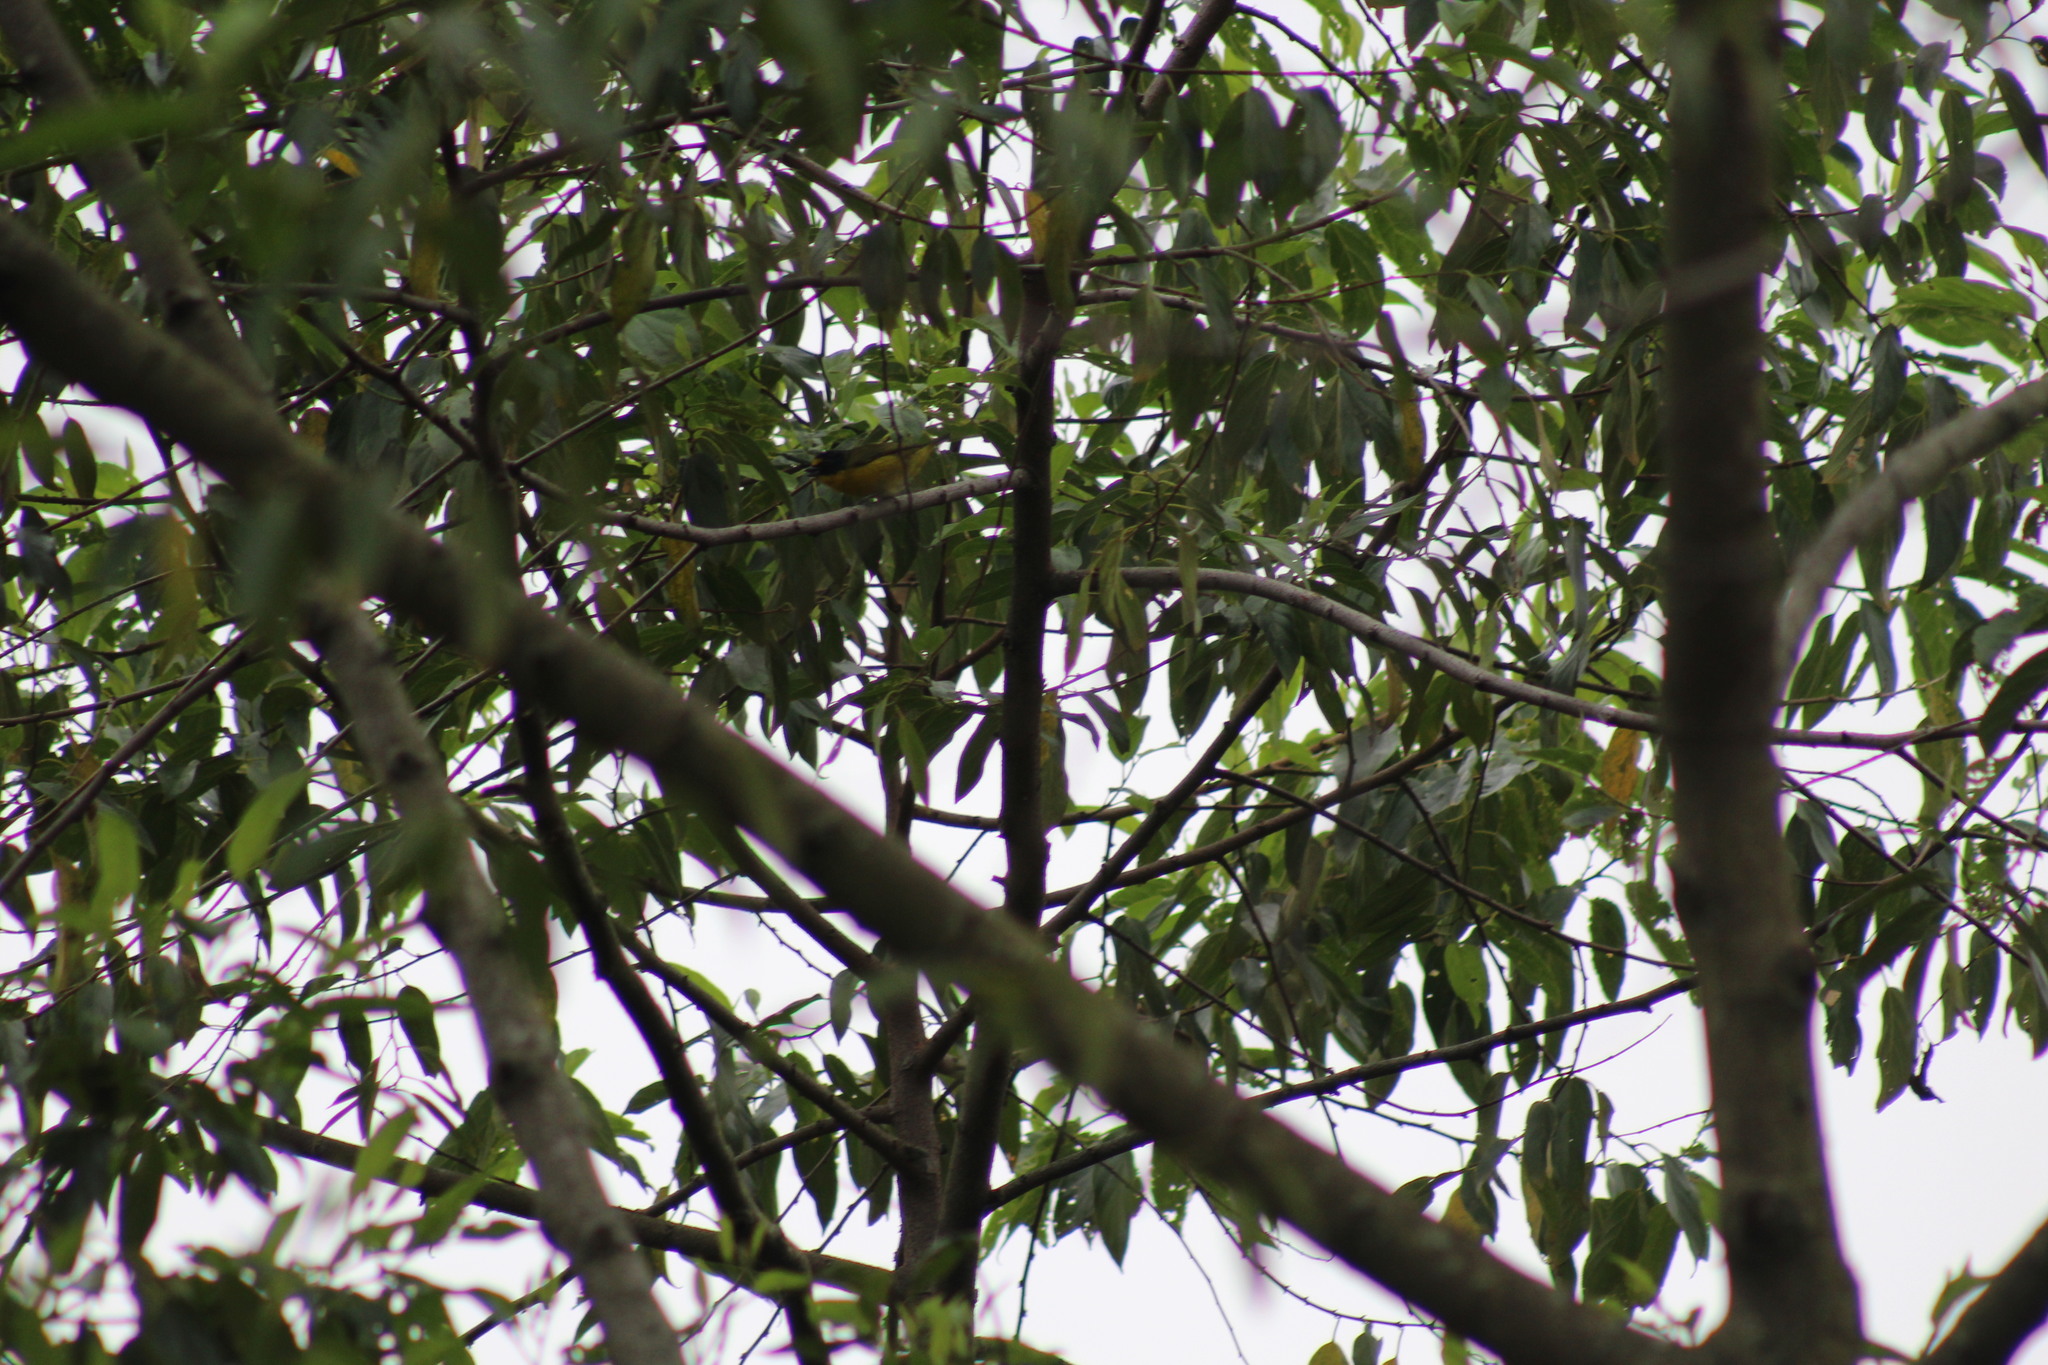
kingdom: Animalia
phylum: Chordata
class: Aves
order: Passeriformes
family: Fringillidae
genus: Euphonia
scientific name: Euphonia hirundinacea
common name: Yellow-throated euphonia
